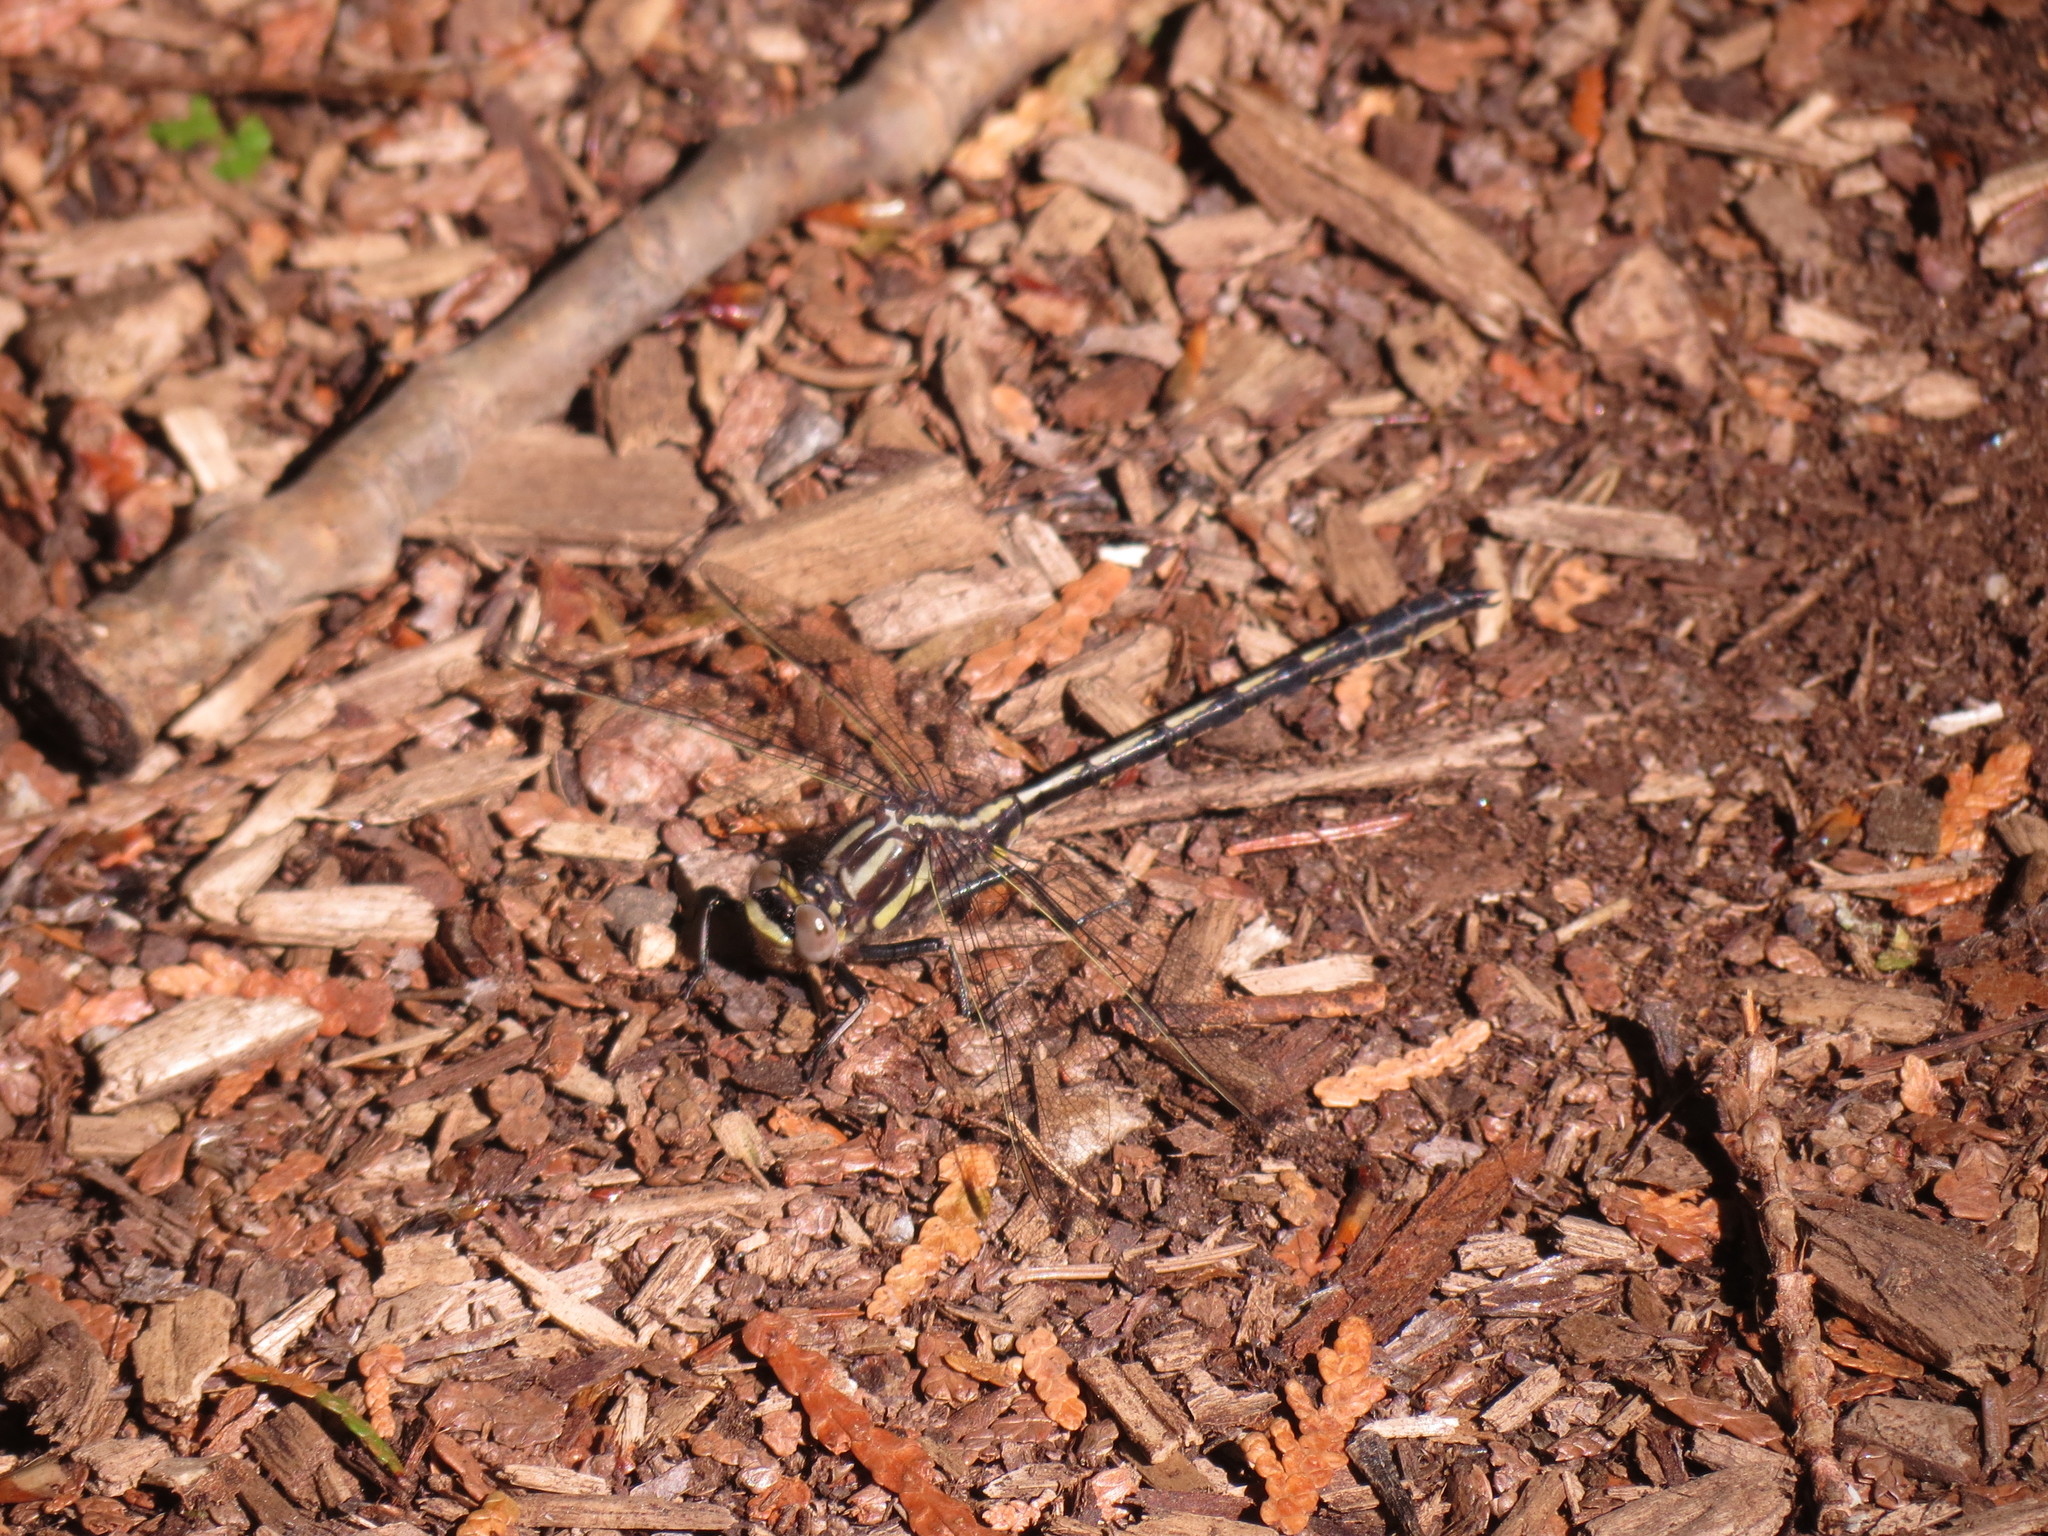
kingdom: Animalia
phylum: Arthropoda
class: Insecta
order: Odonata
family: Gomphidae
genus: Phanogomphus
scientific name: Phanogomphus spicatus
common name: Dusky clubtail
